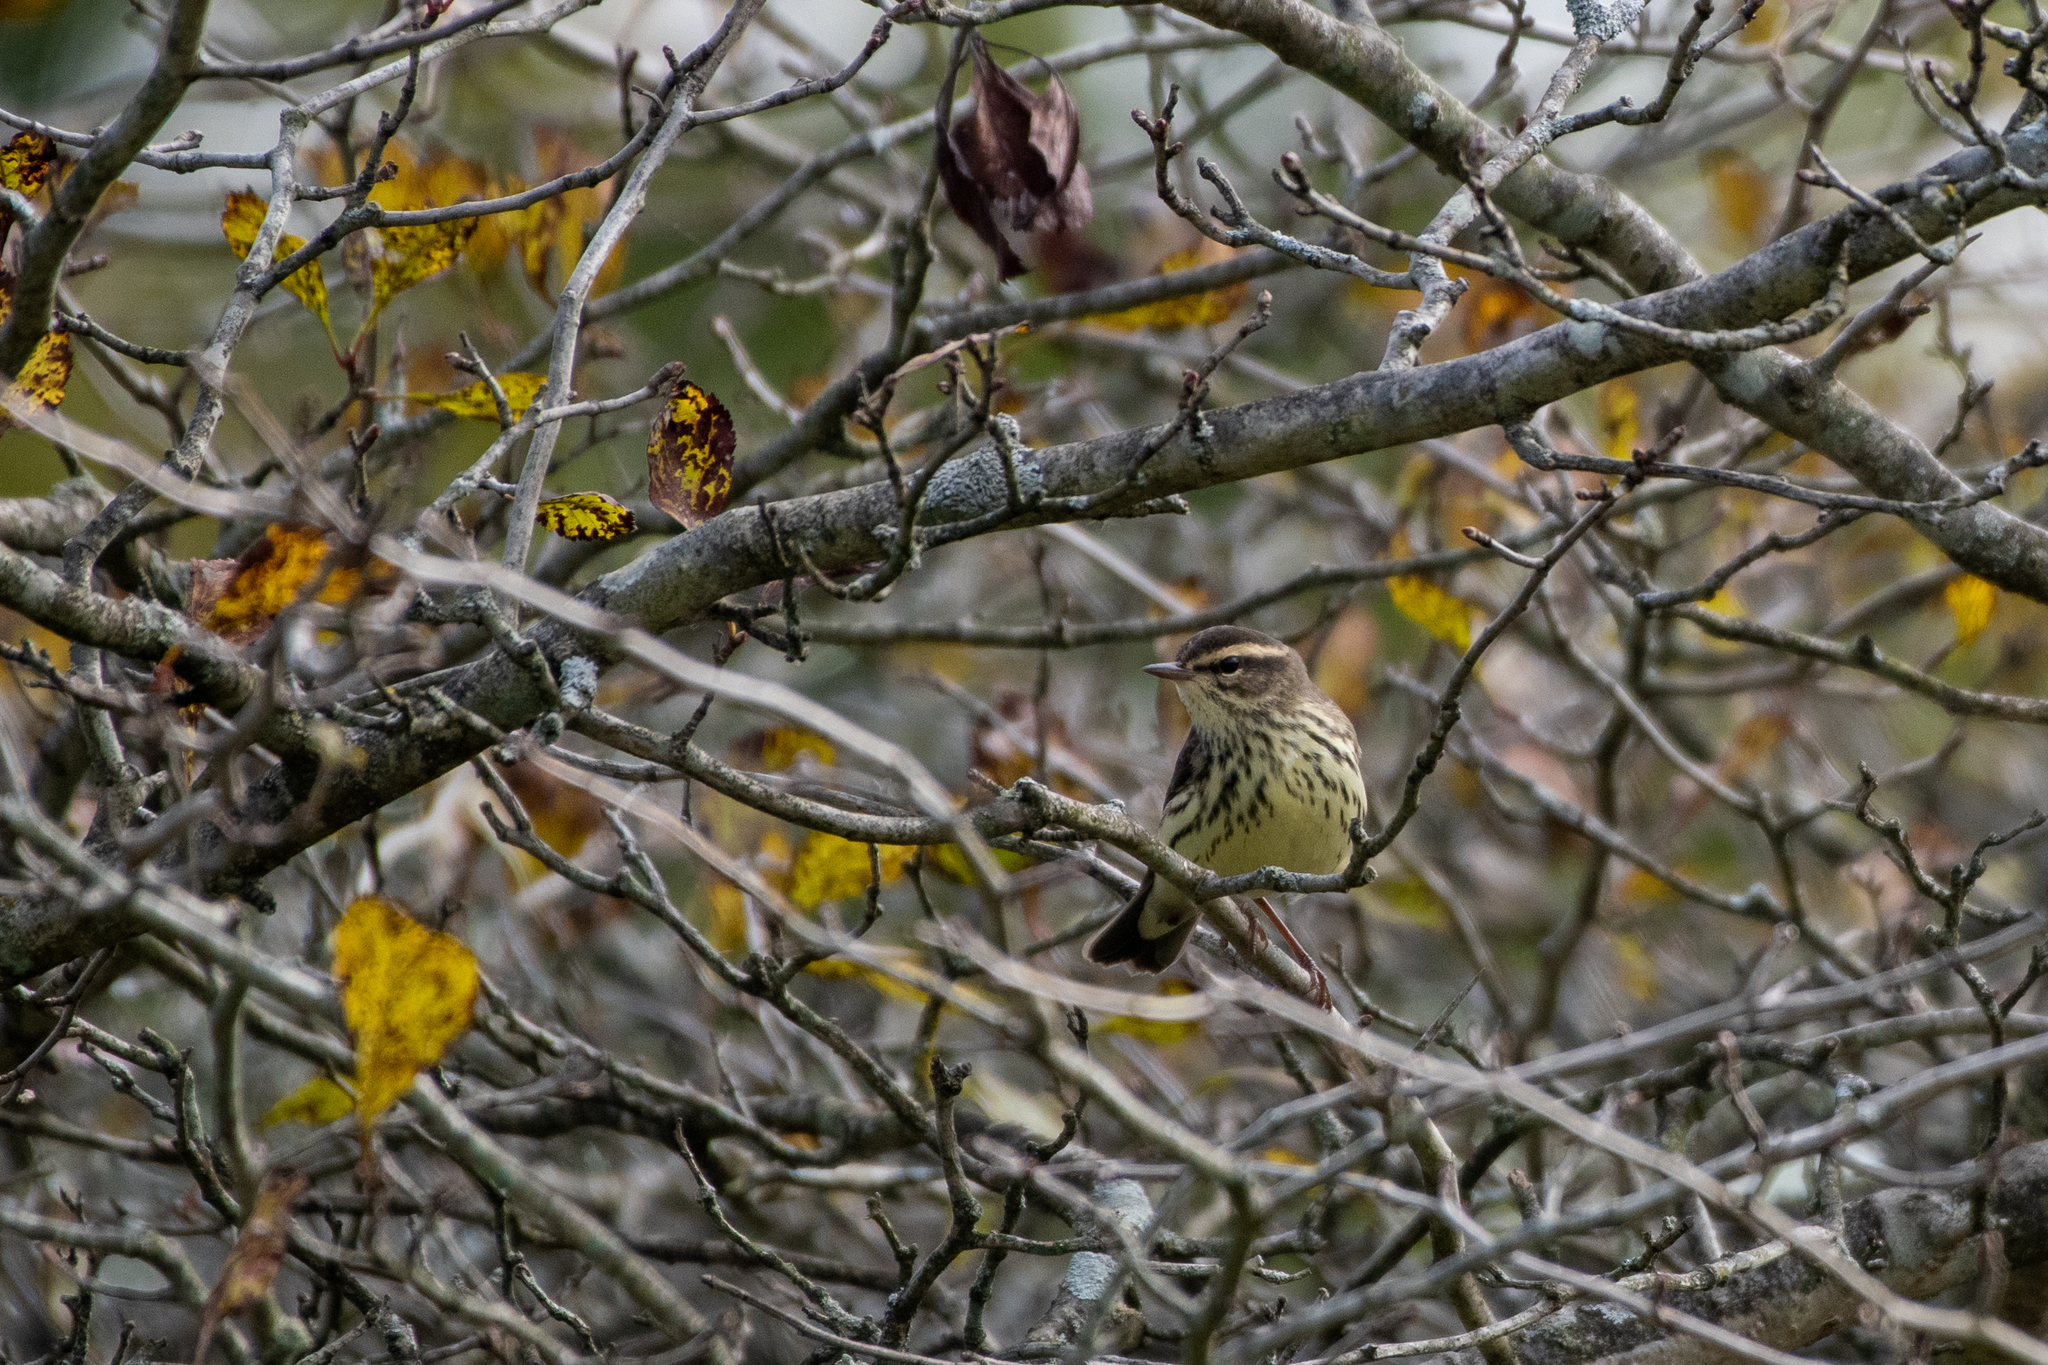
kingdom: Animalia
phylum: Chordata
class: Aves
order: Passeriformes
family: Parulidae
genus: Parkesia
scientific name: Parkesia noveboracensis
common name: Northern waterthrush
